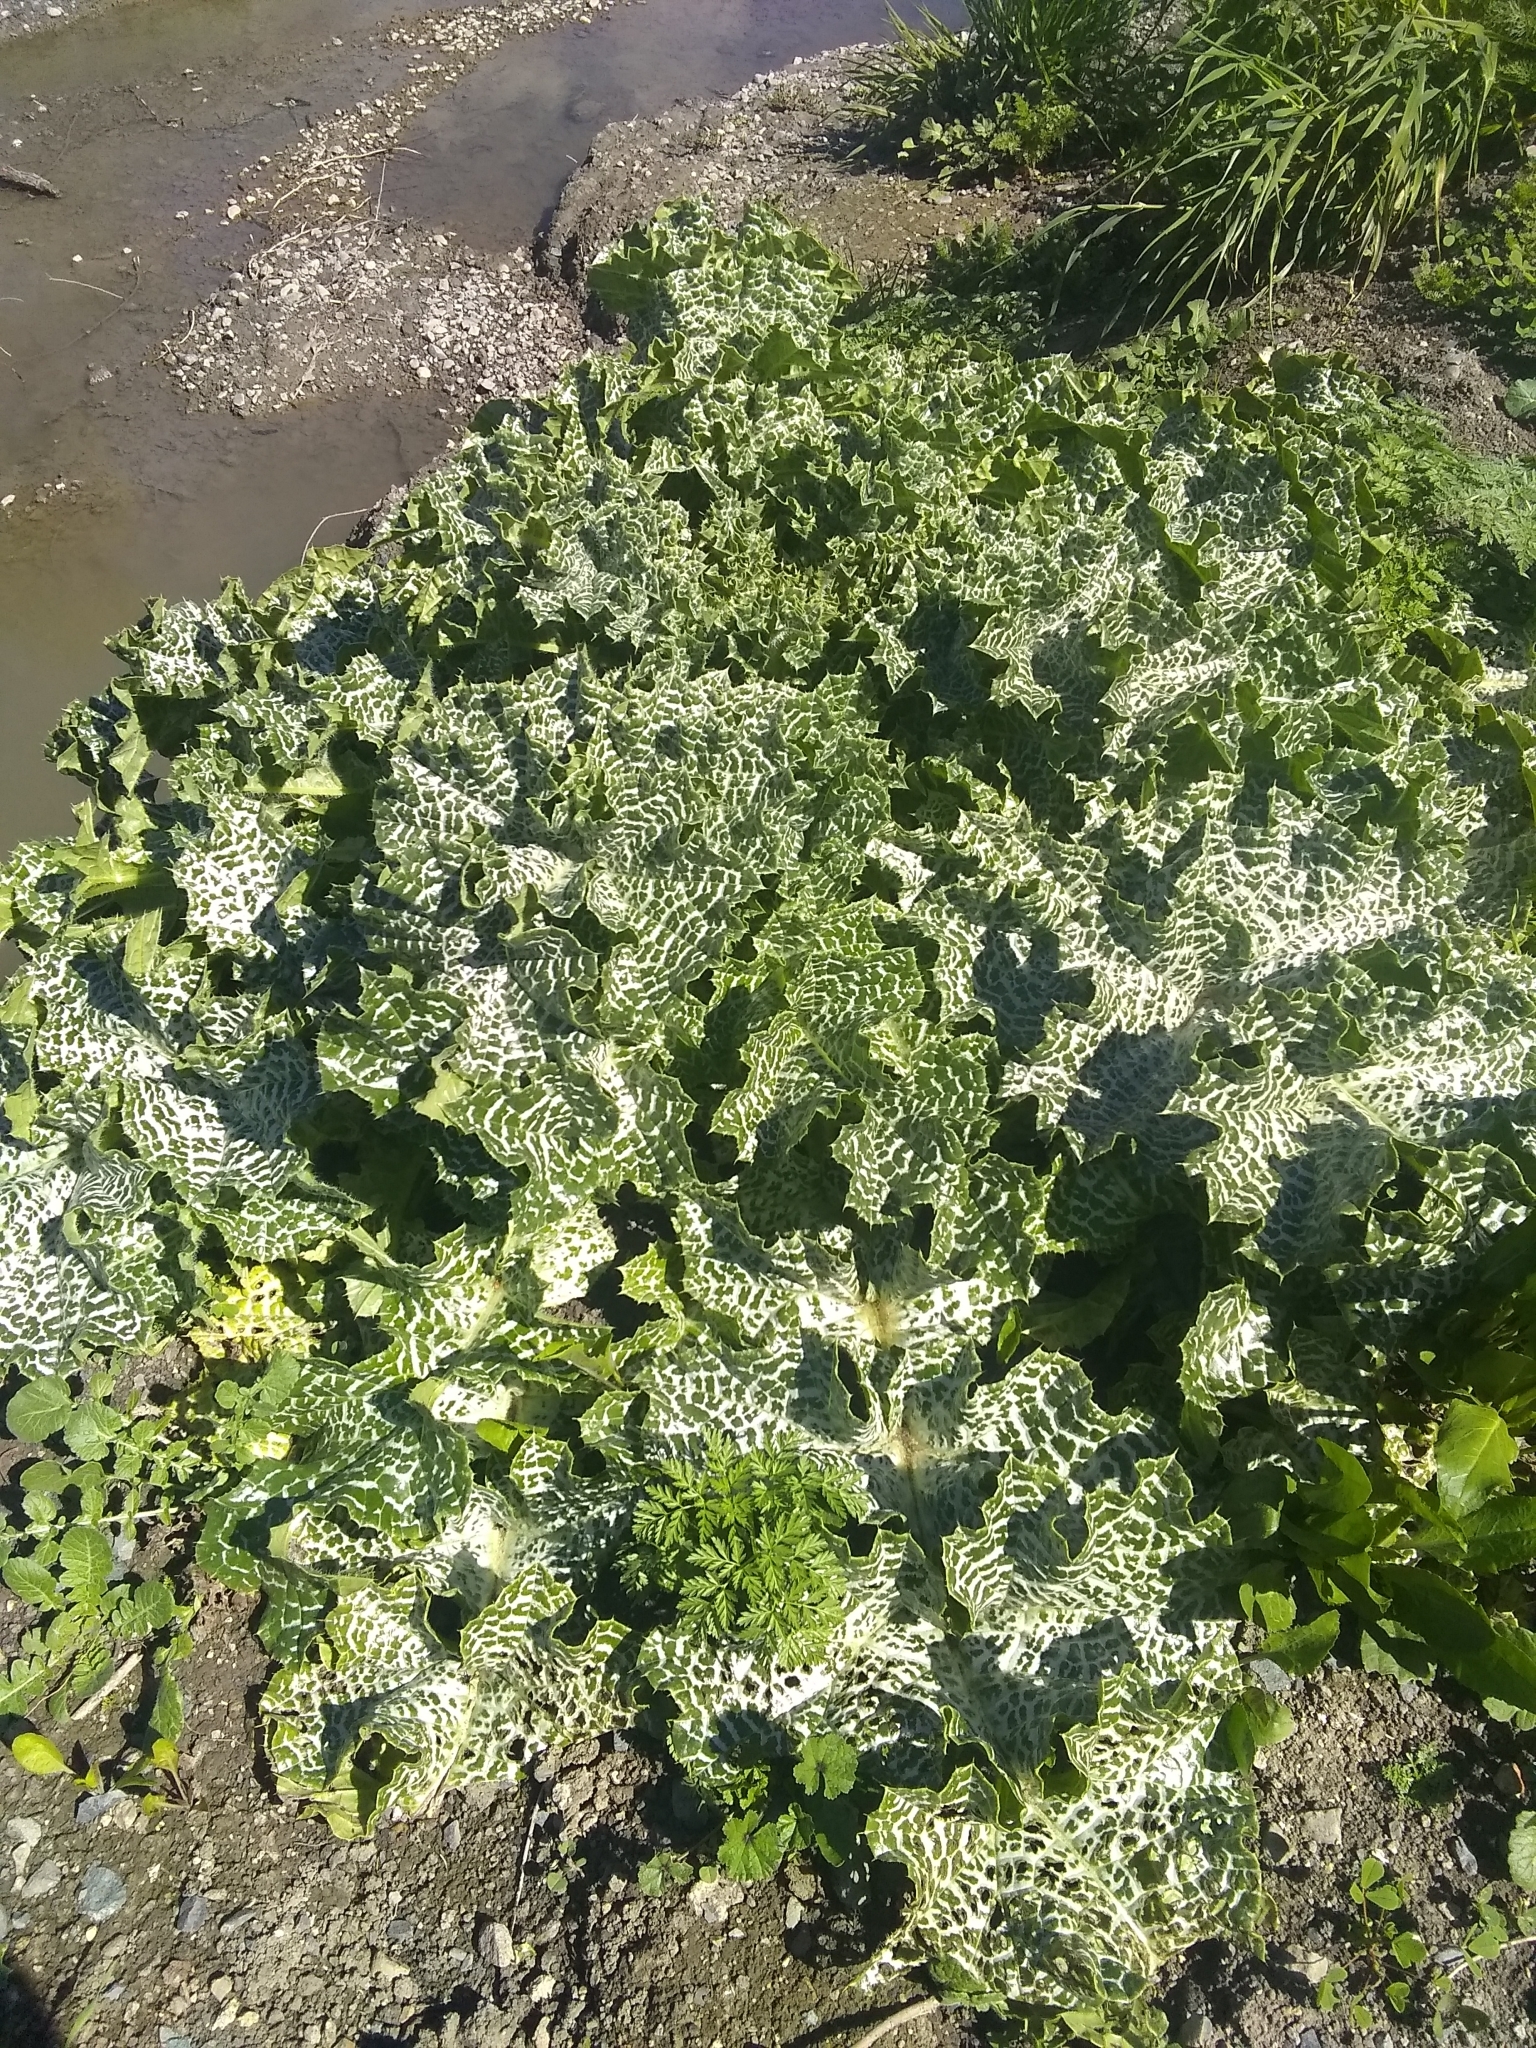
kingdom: Plantae
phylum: Tracheophyta
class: Magnoliopsida
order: Asterales
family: Asteraceae
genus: Silybum
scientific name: Silybum marianum
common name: Milk thistle
